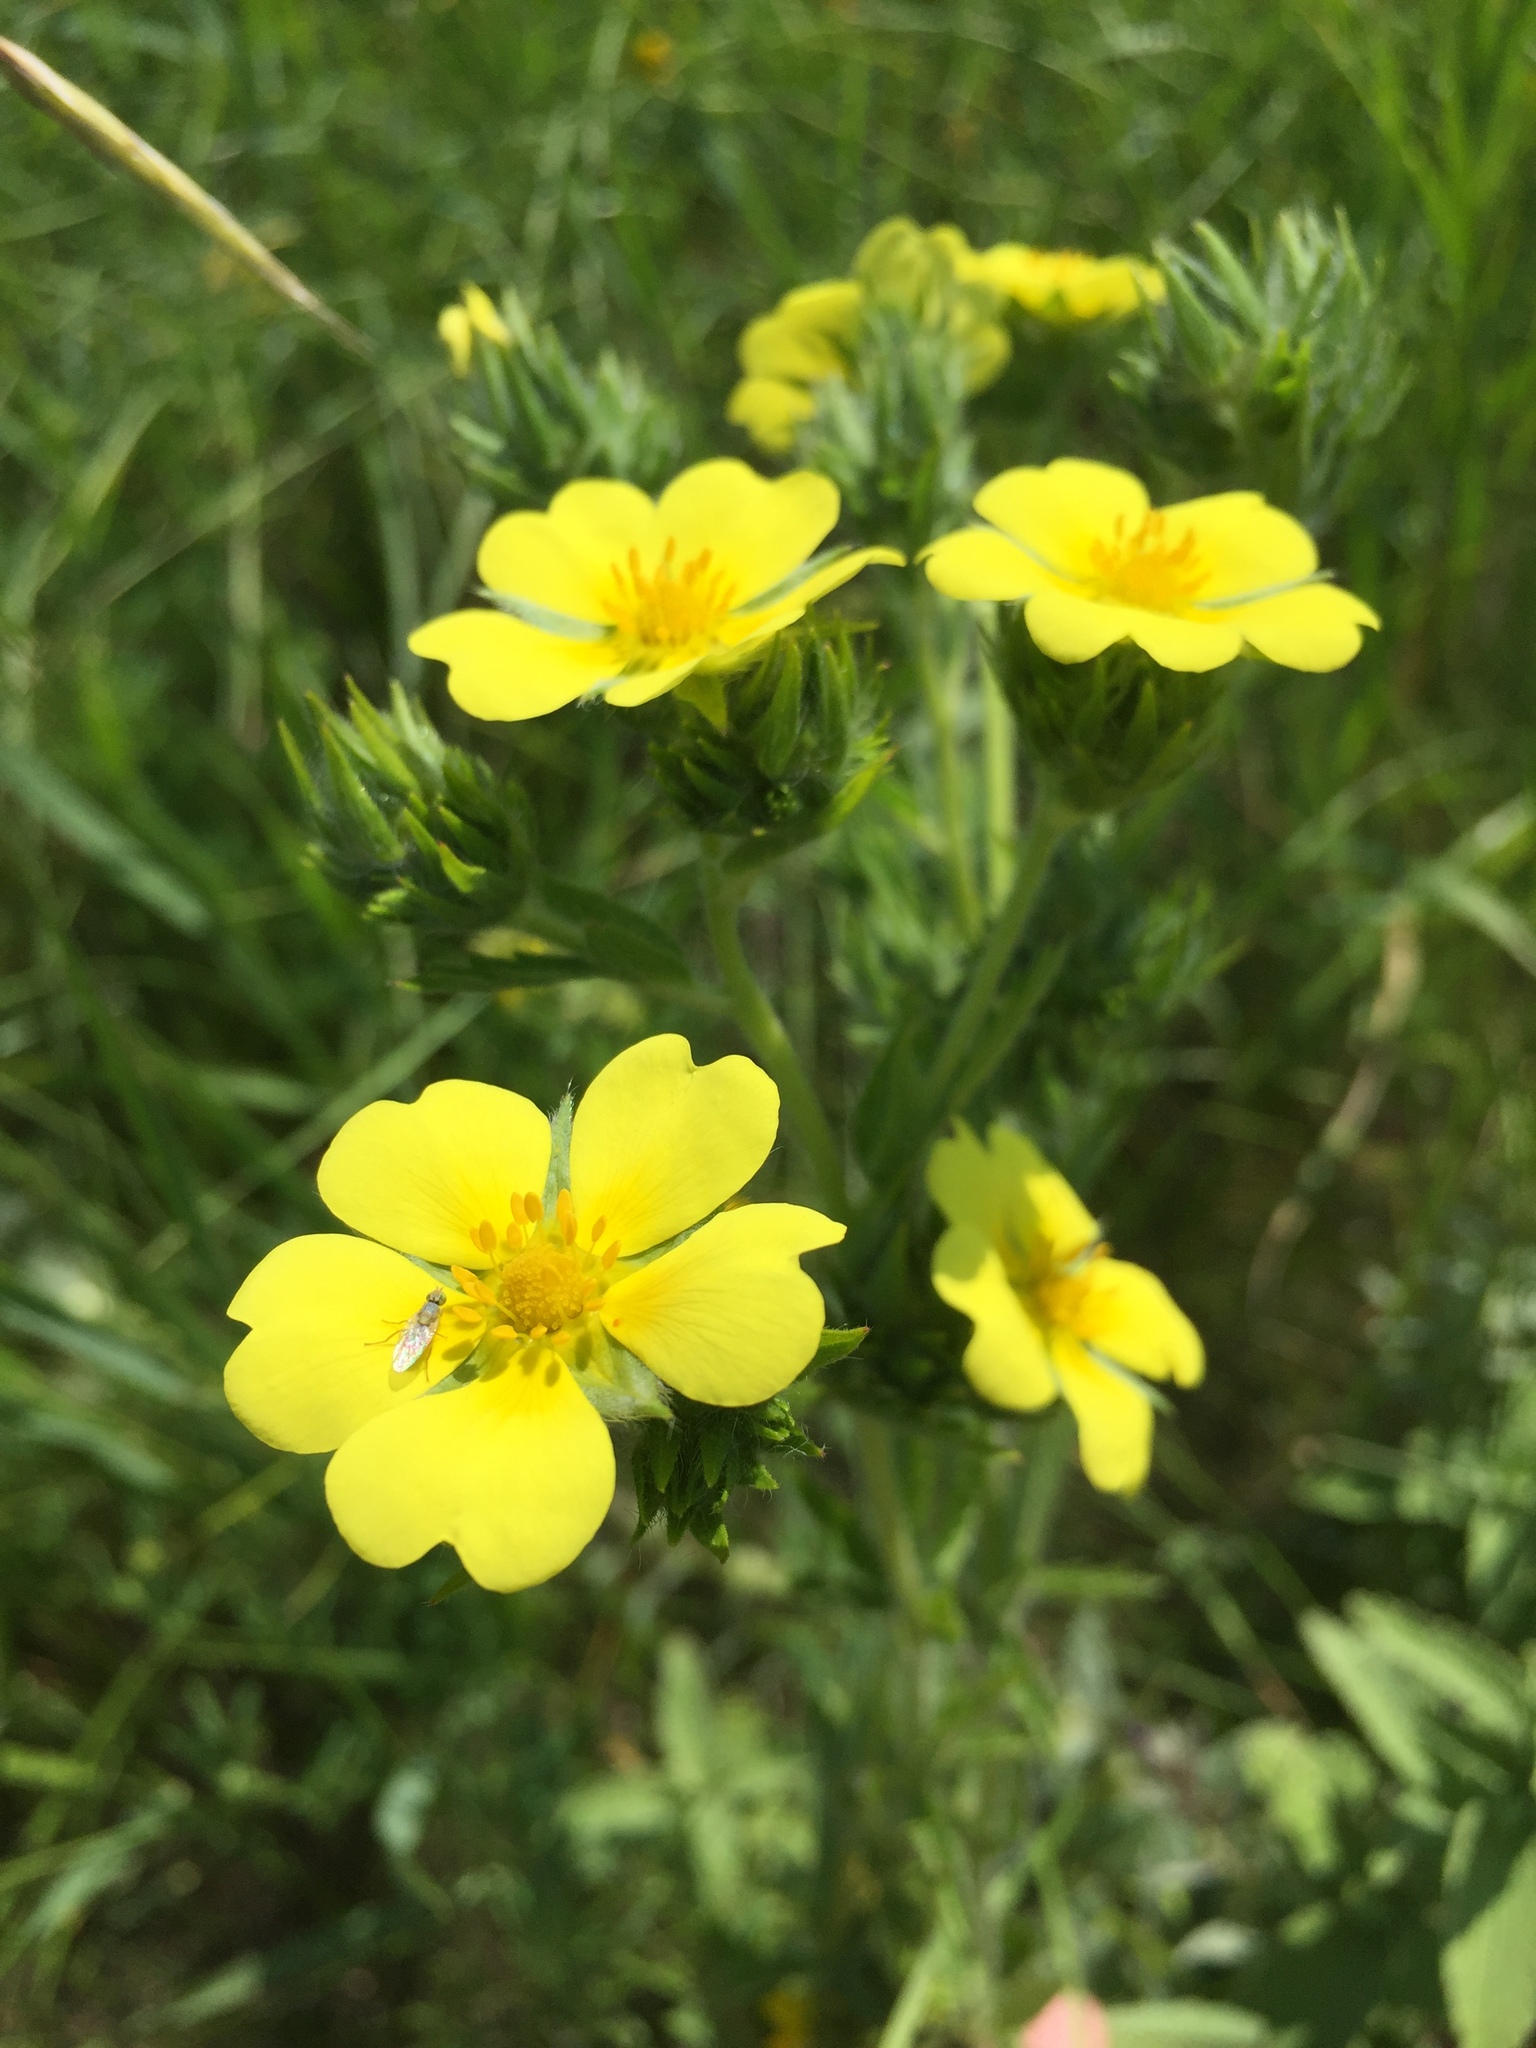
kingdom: Plantae
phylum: Tracheophyta
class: Magnoliopsida
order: Rosales
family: Rosaceae
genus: Potentilla
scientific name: Potentilla recta
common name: Sulphur cinquefoil
